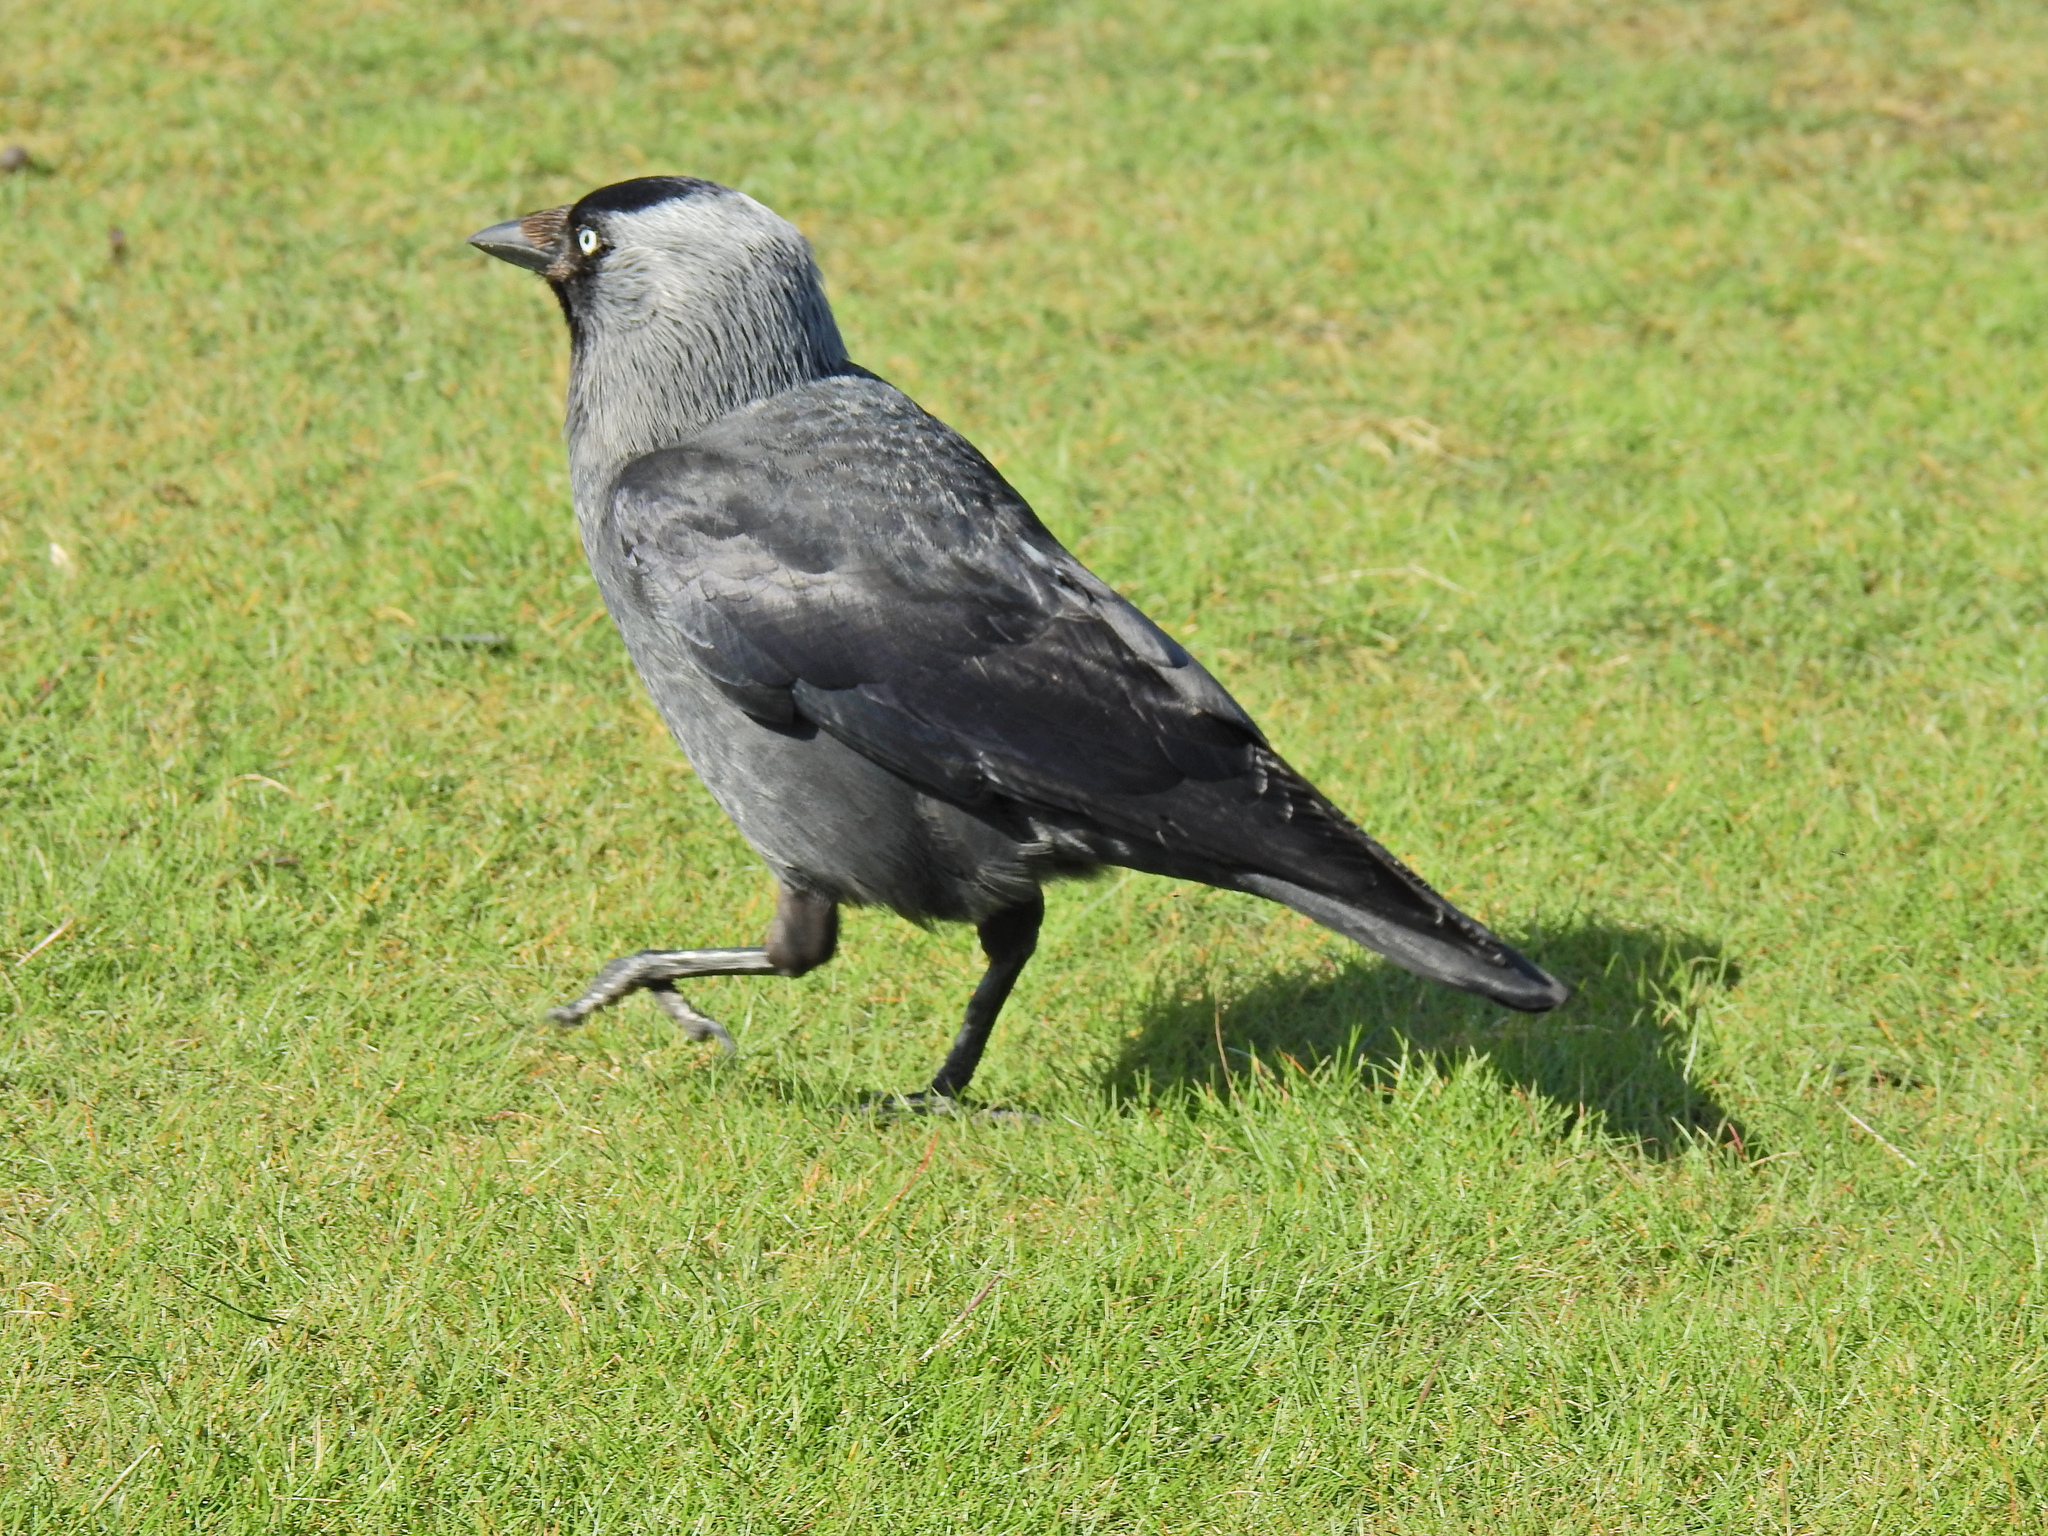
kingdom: Animalia
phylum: Chordata
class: Aves
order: Passeriformes
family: Corvidae
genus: Coloeus
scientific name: Coloeus monedula
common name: Western jackdaw
